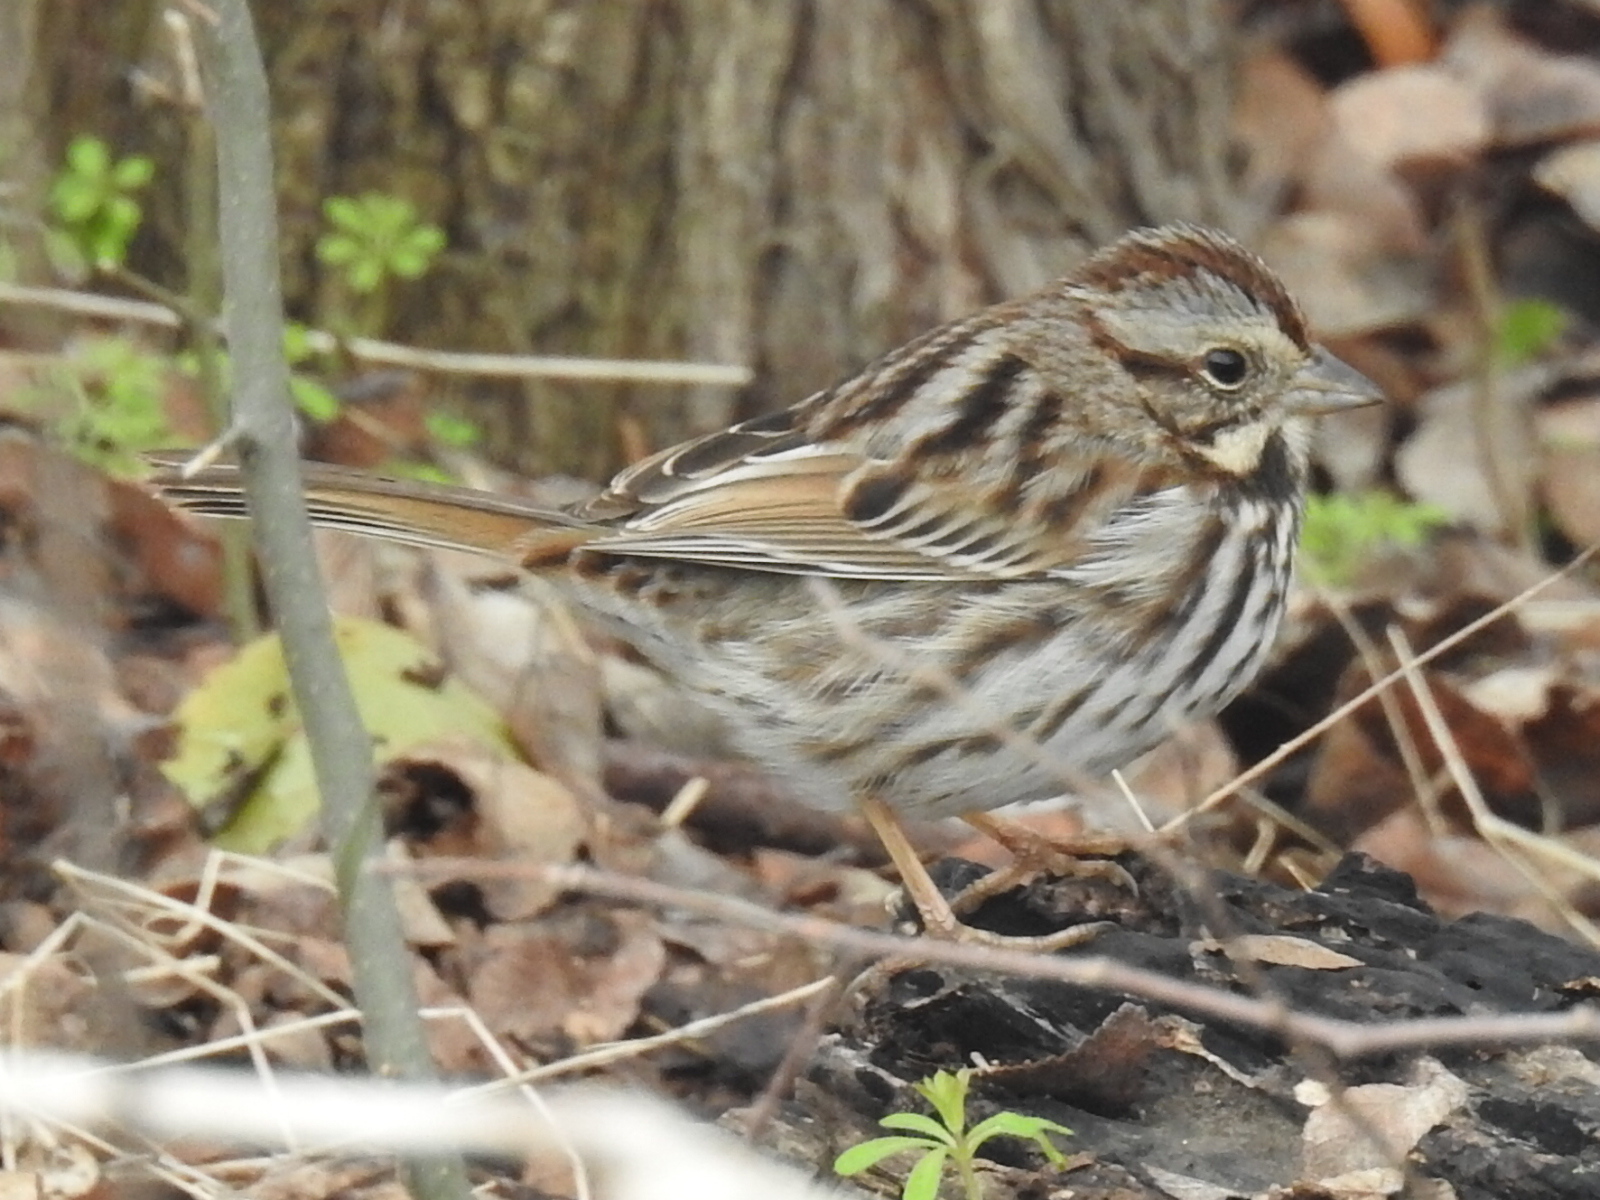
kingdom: Animalia
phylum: Chordata
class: Aves
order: Passeriformes
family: Passerellidae
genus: Melospiza
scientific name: Melospiza melodia
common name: Song sparrow
